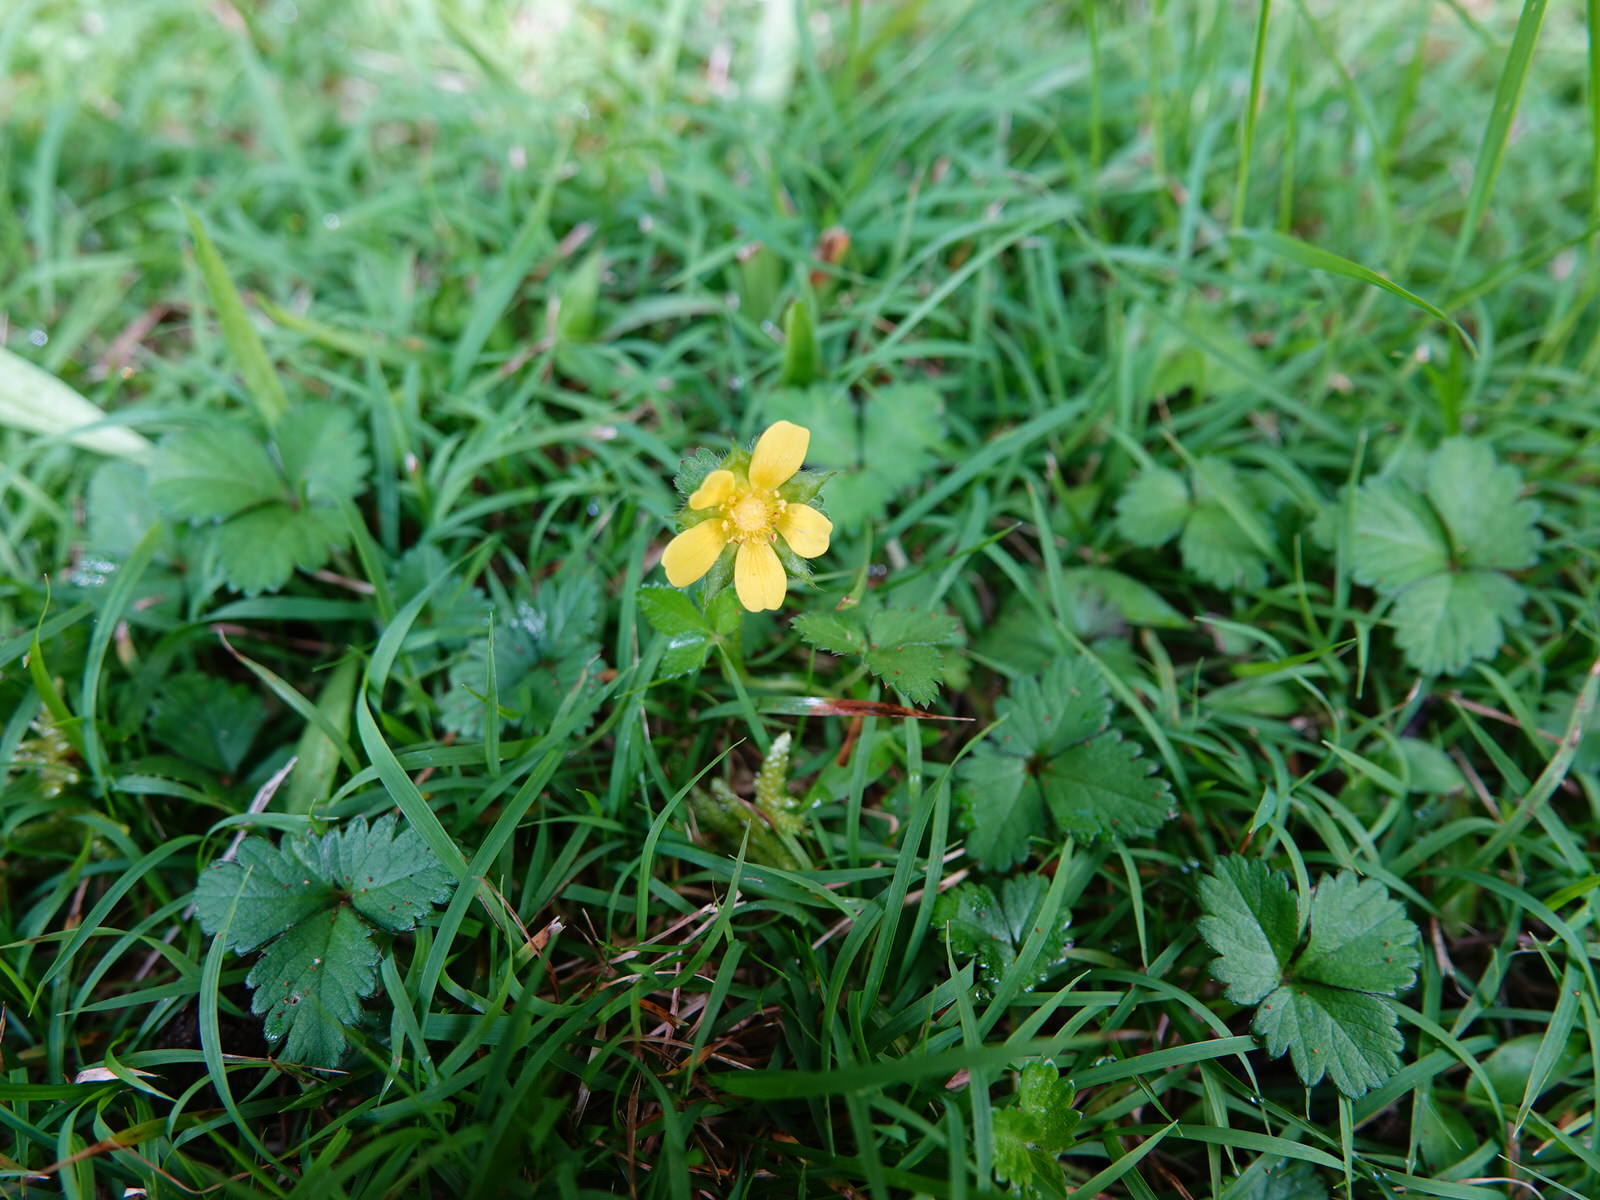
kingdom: Plantae
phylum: Tracheophyta
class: Magnoliopsida
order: Rosales
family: Rosaceae
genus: Potentilla
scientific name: Potentilla indica
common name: Yellow-flowered strawberry
